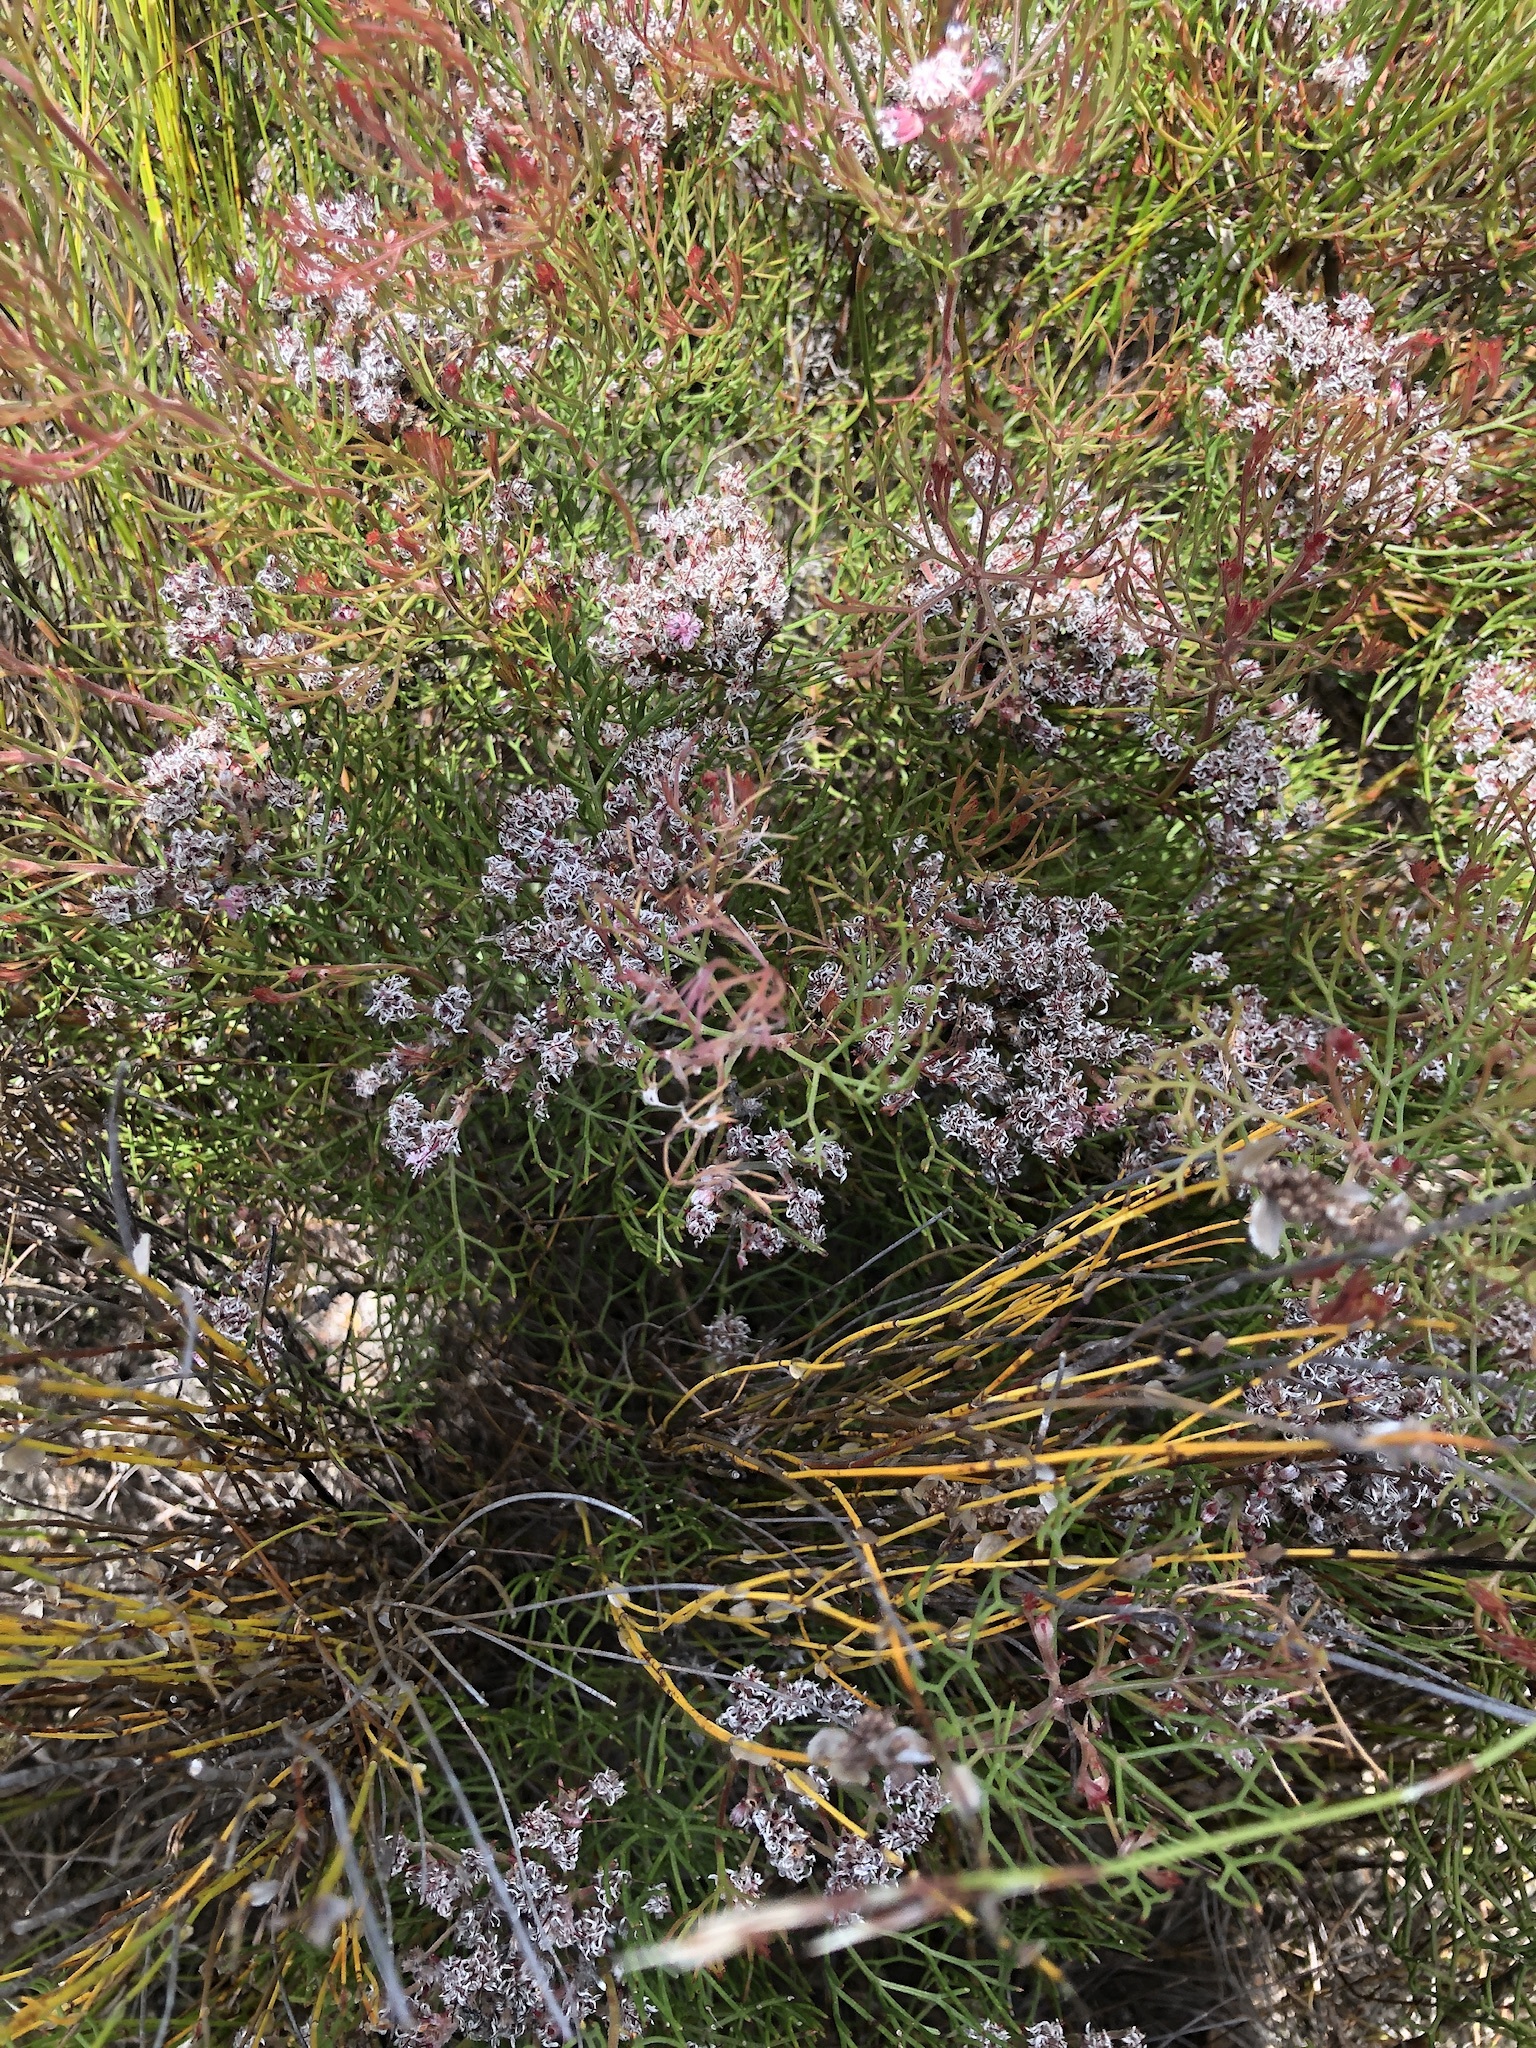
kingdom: Plantae
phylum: Tracheophyta
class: Magnoliopsida
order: Proteales
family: Proteaceae
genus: Serruria
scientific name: Serruria fasciflora
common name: Common pin spiderhead
